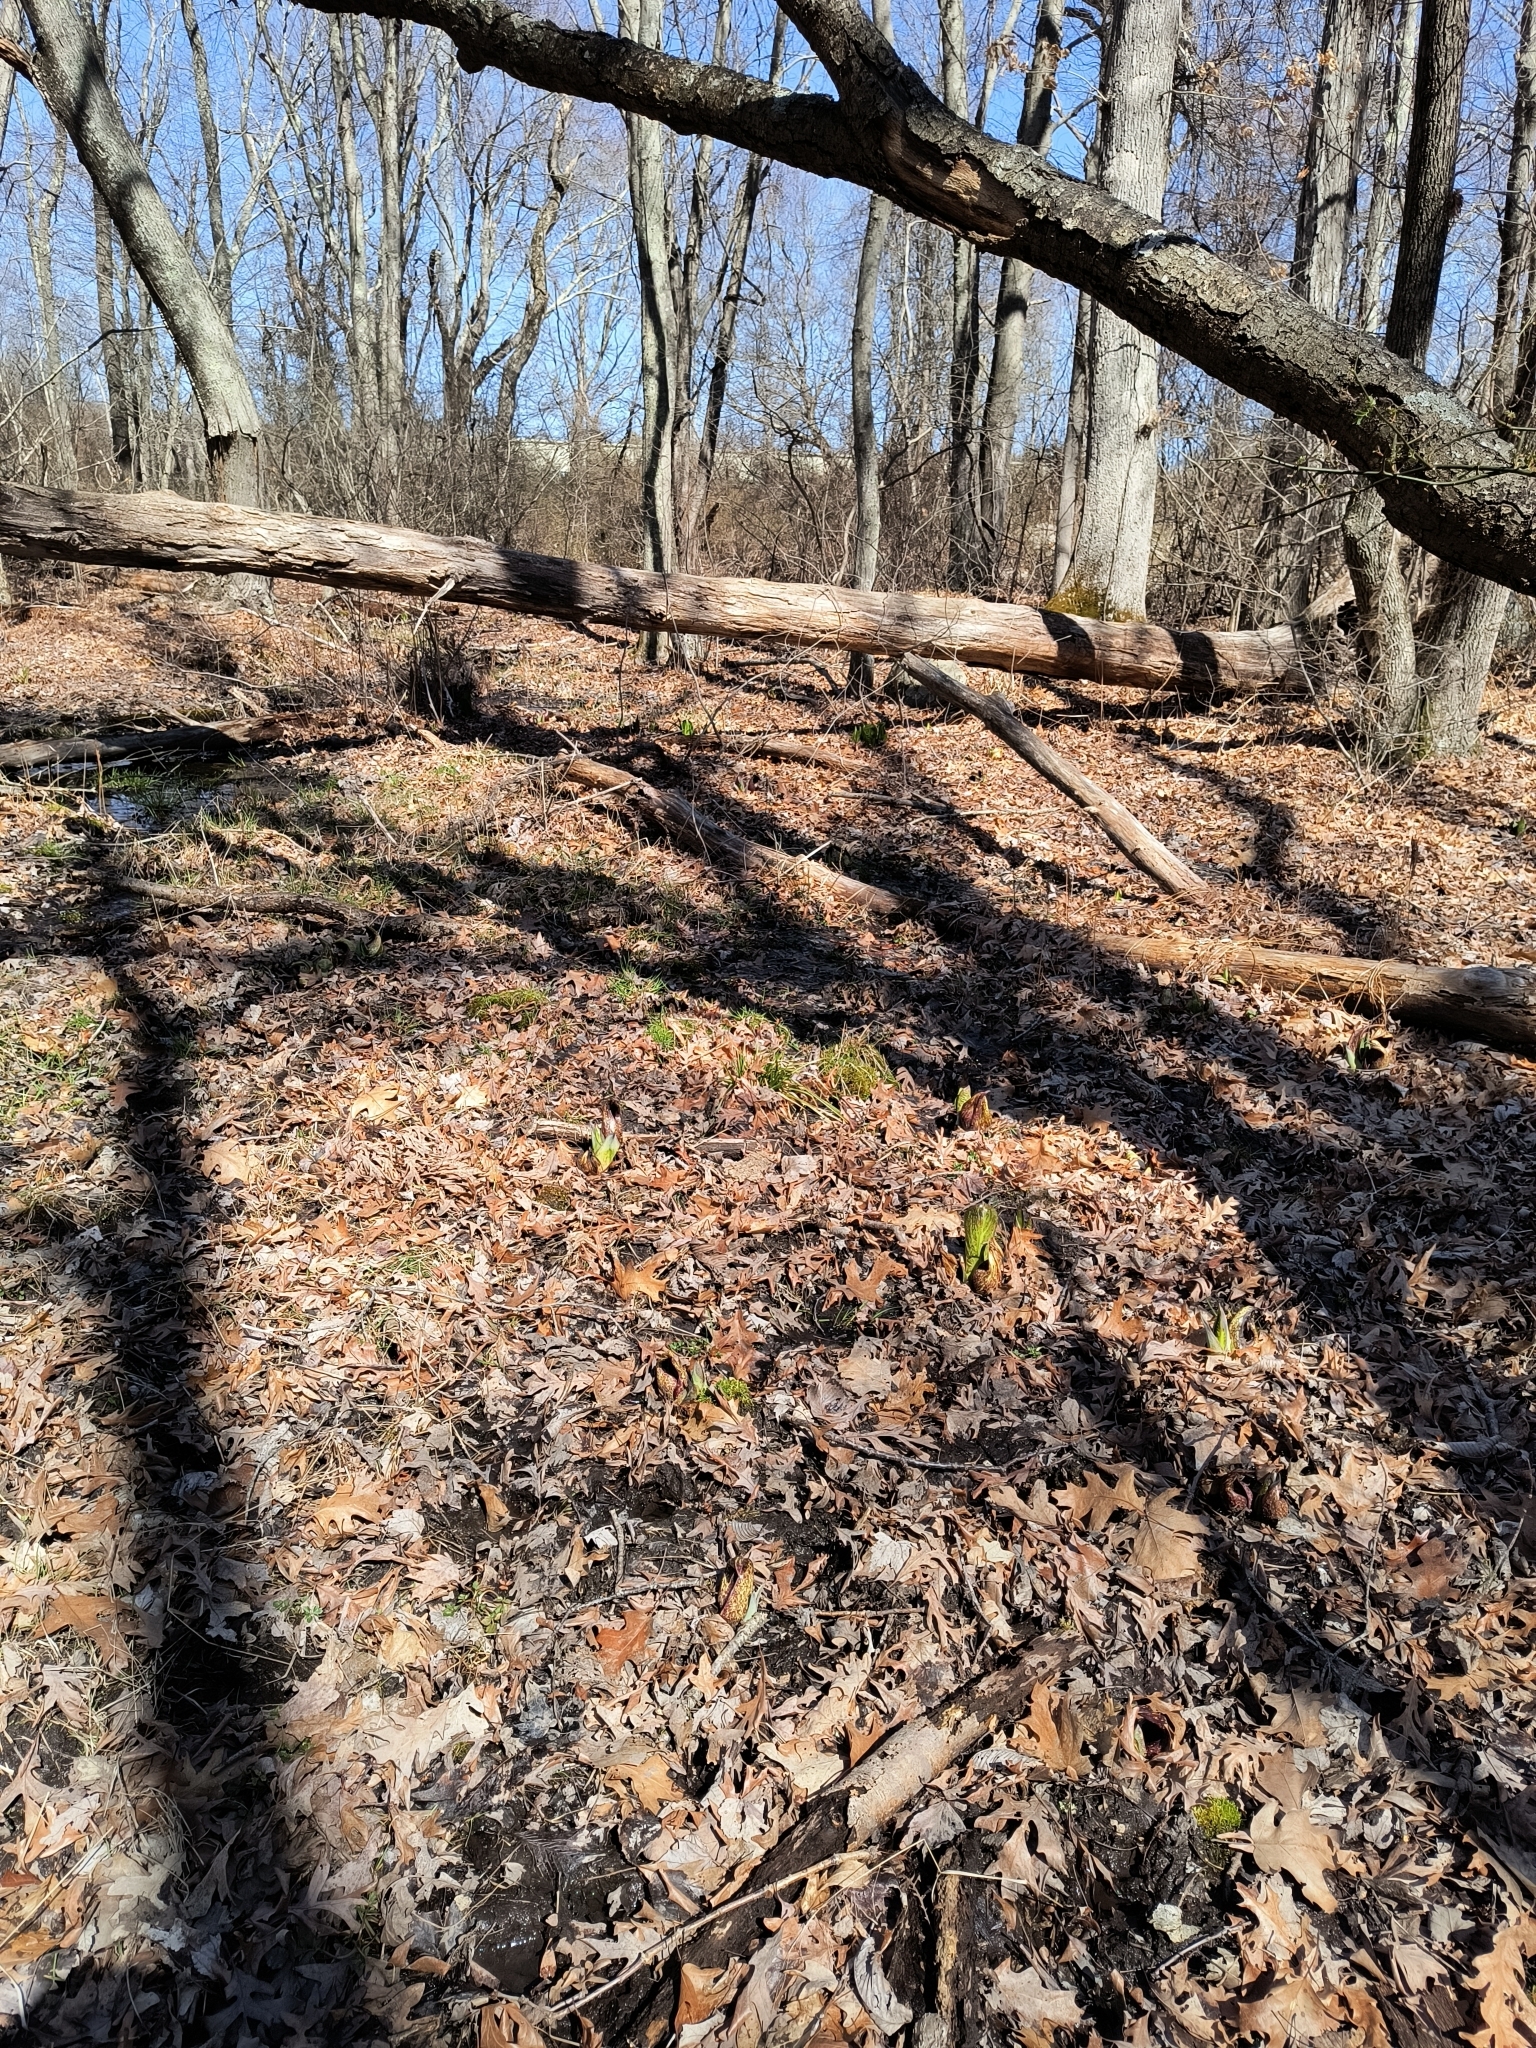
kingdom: Plantae
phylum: Tracheophyta
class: Liliopsida
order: Alismatales
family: Araceae
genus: Symplocarpus
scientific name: Symplocarpus foetidus
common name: Eastern skunk cabbage
